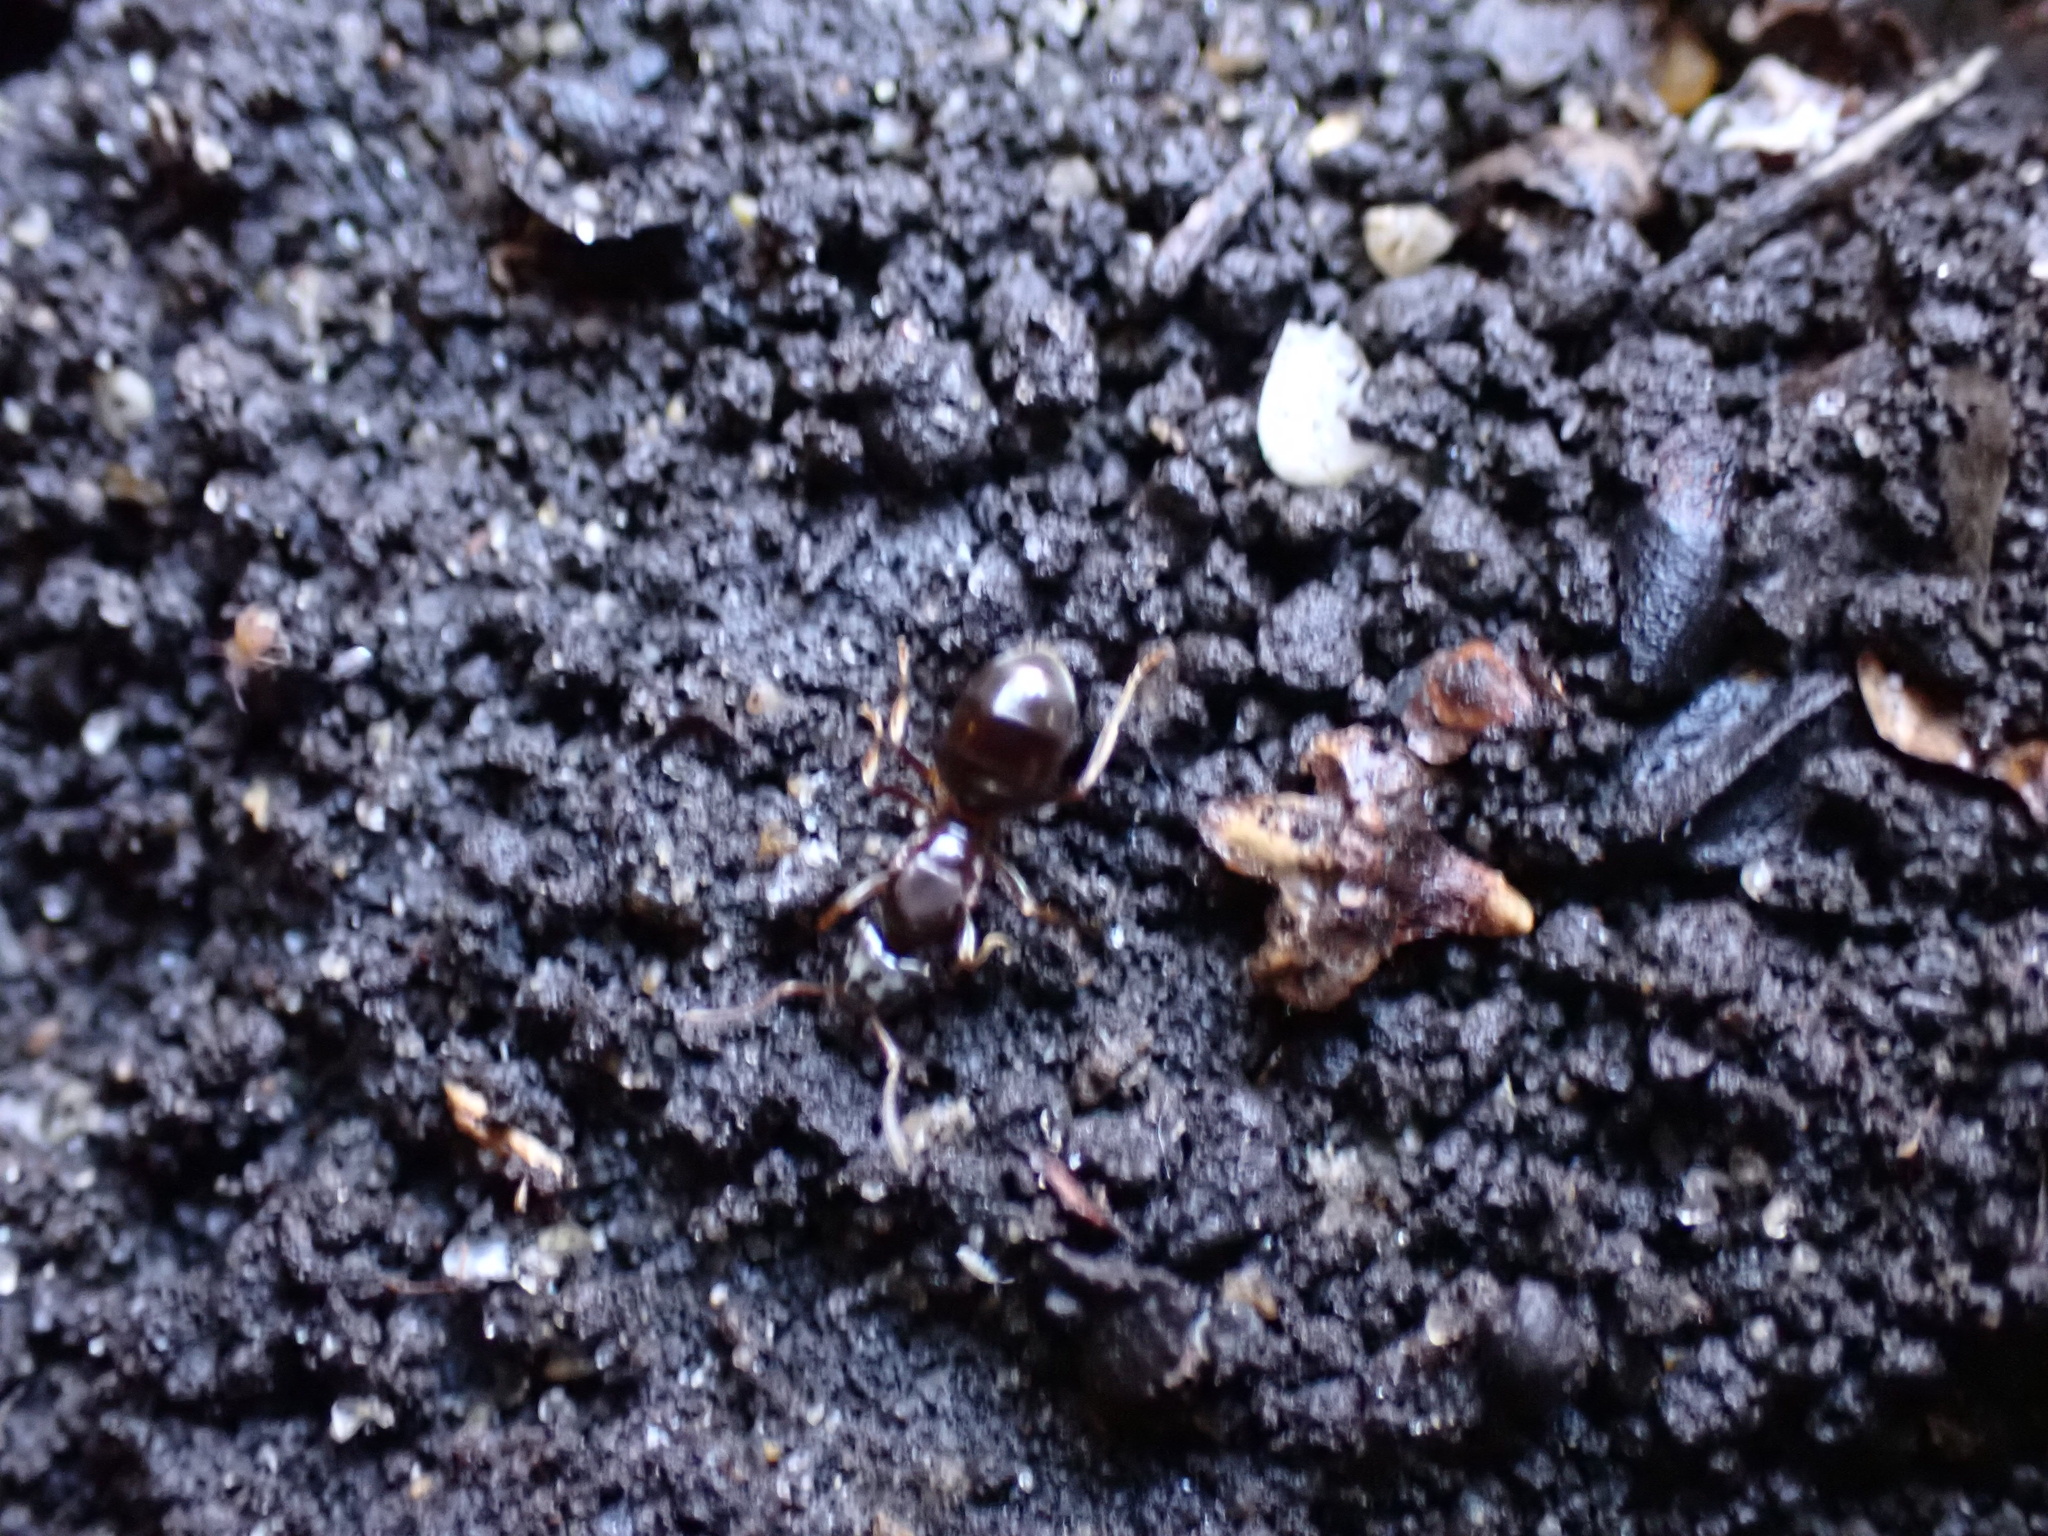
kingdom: Animalia
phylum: Arthropoda
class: Insecta
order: Hymenoptera
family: Formicidae
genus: Lasius
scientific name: Lasius aphidicola
